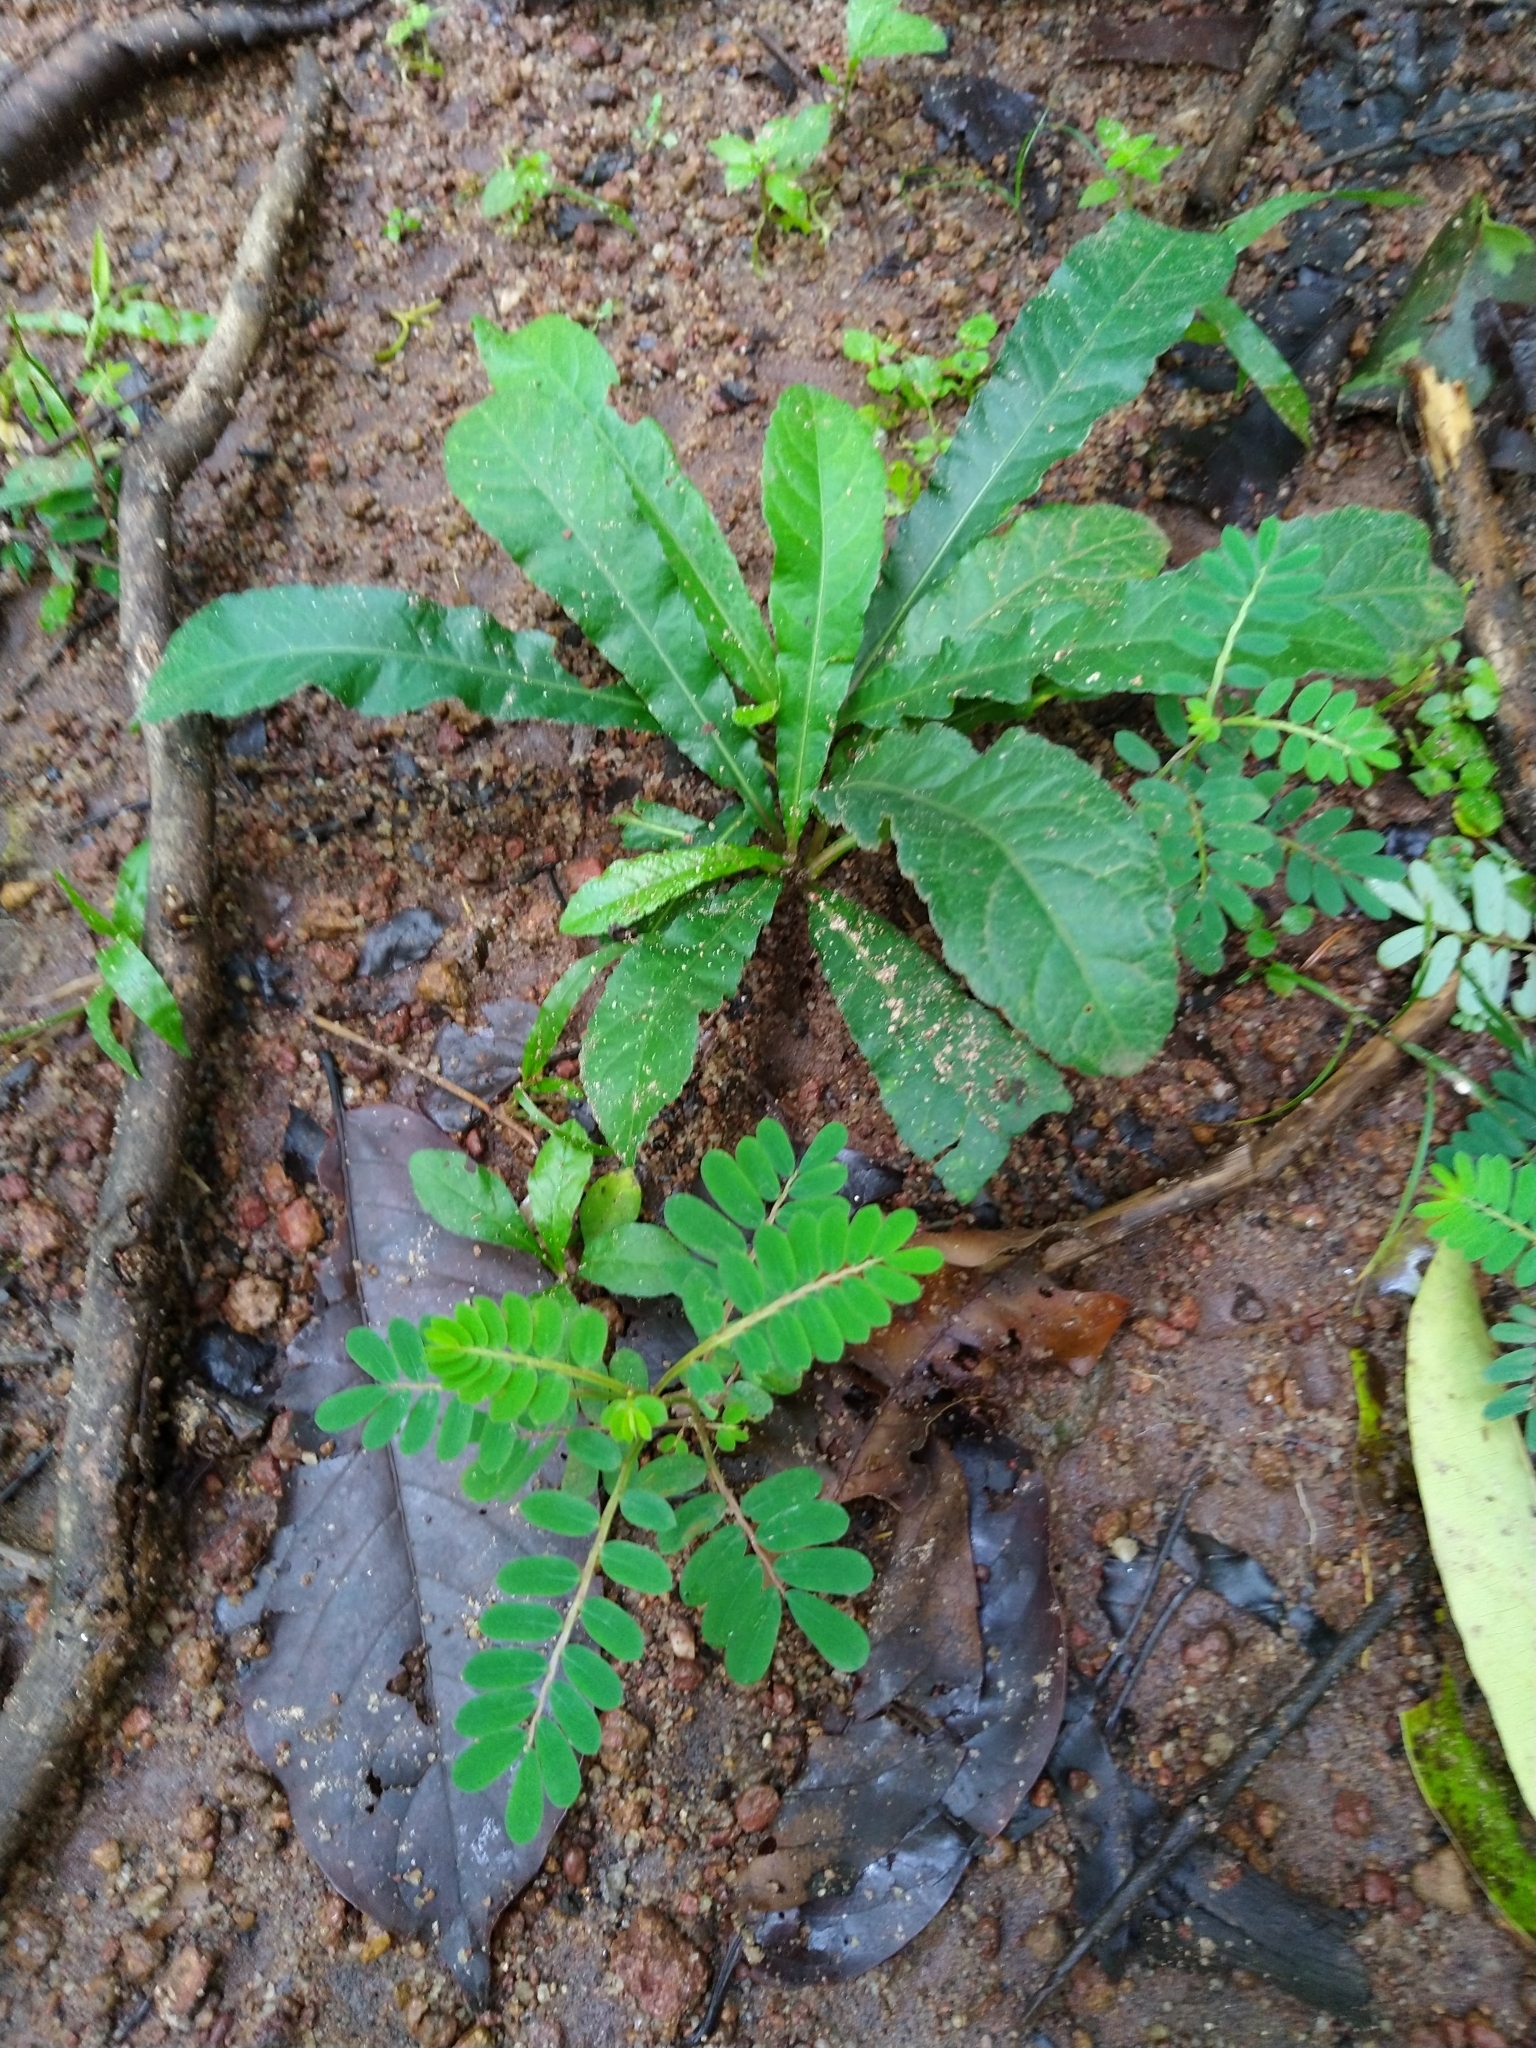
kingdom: Plantae
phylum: Tracheophyta
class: Magnoliopsida
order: Asterales
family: Asteraceae
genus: Elephantopus
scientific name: Elephantopus scaber
